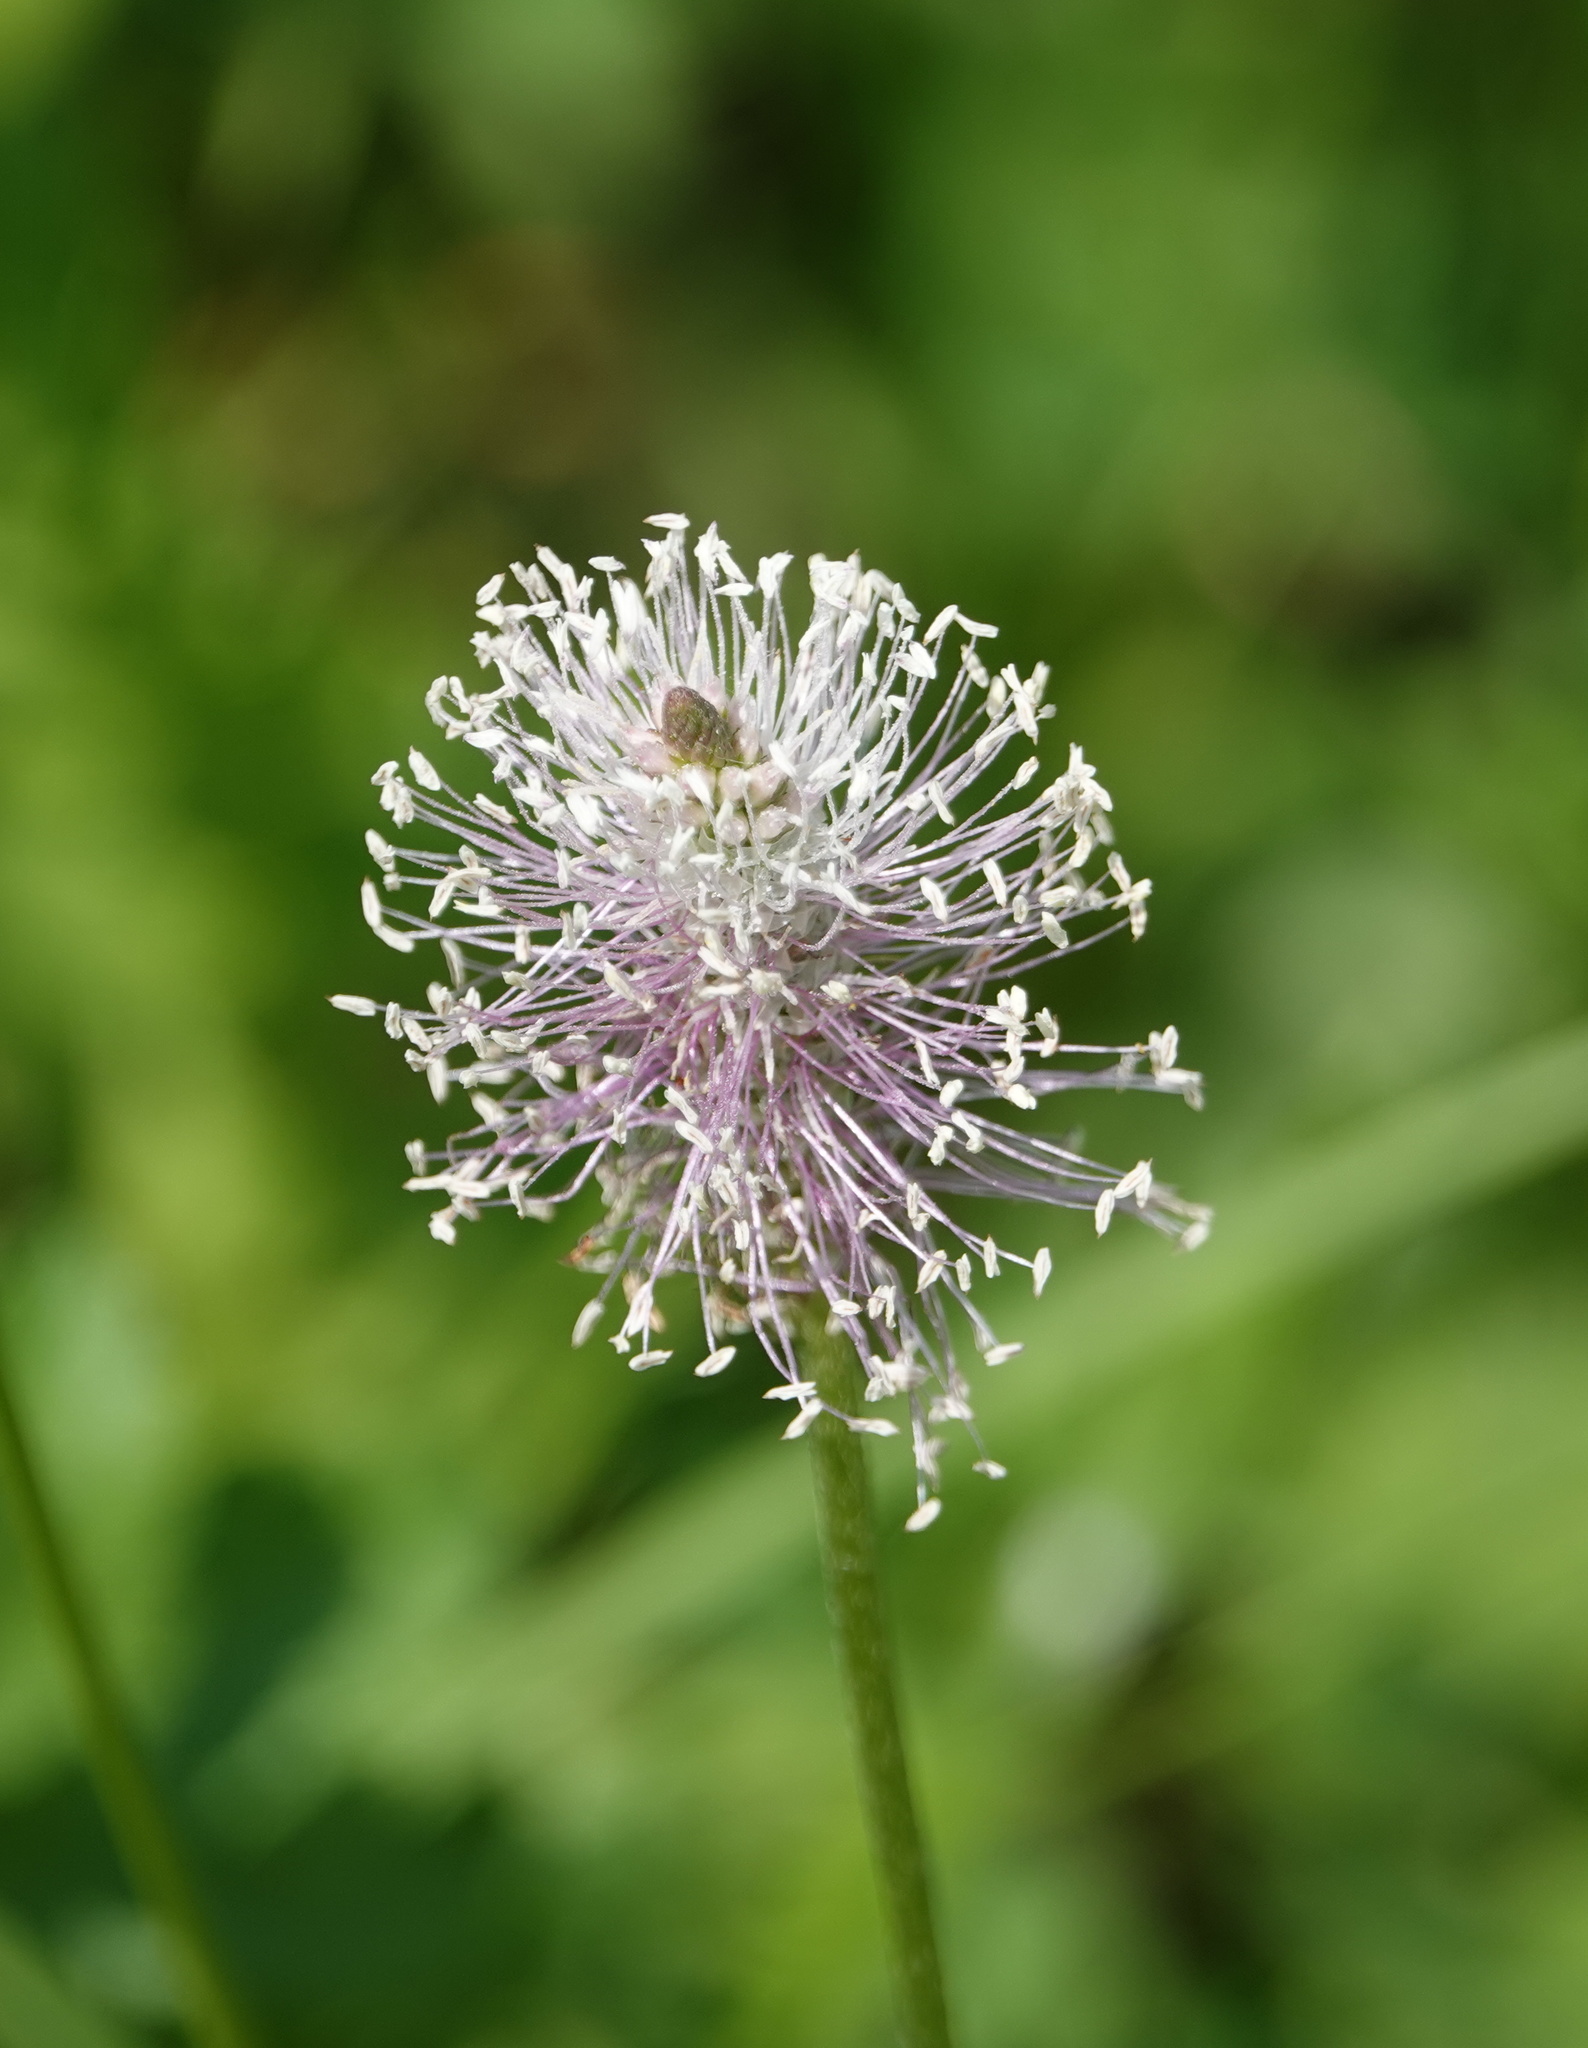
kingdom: Plantae
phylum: Tracheophyta
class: Magnoliopsida
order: Lamiales
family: Plantaginaceae
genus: Plantago
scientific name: Plantago media
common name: Hoary plantain
